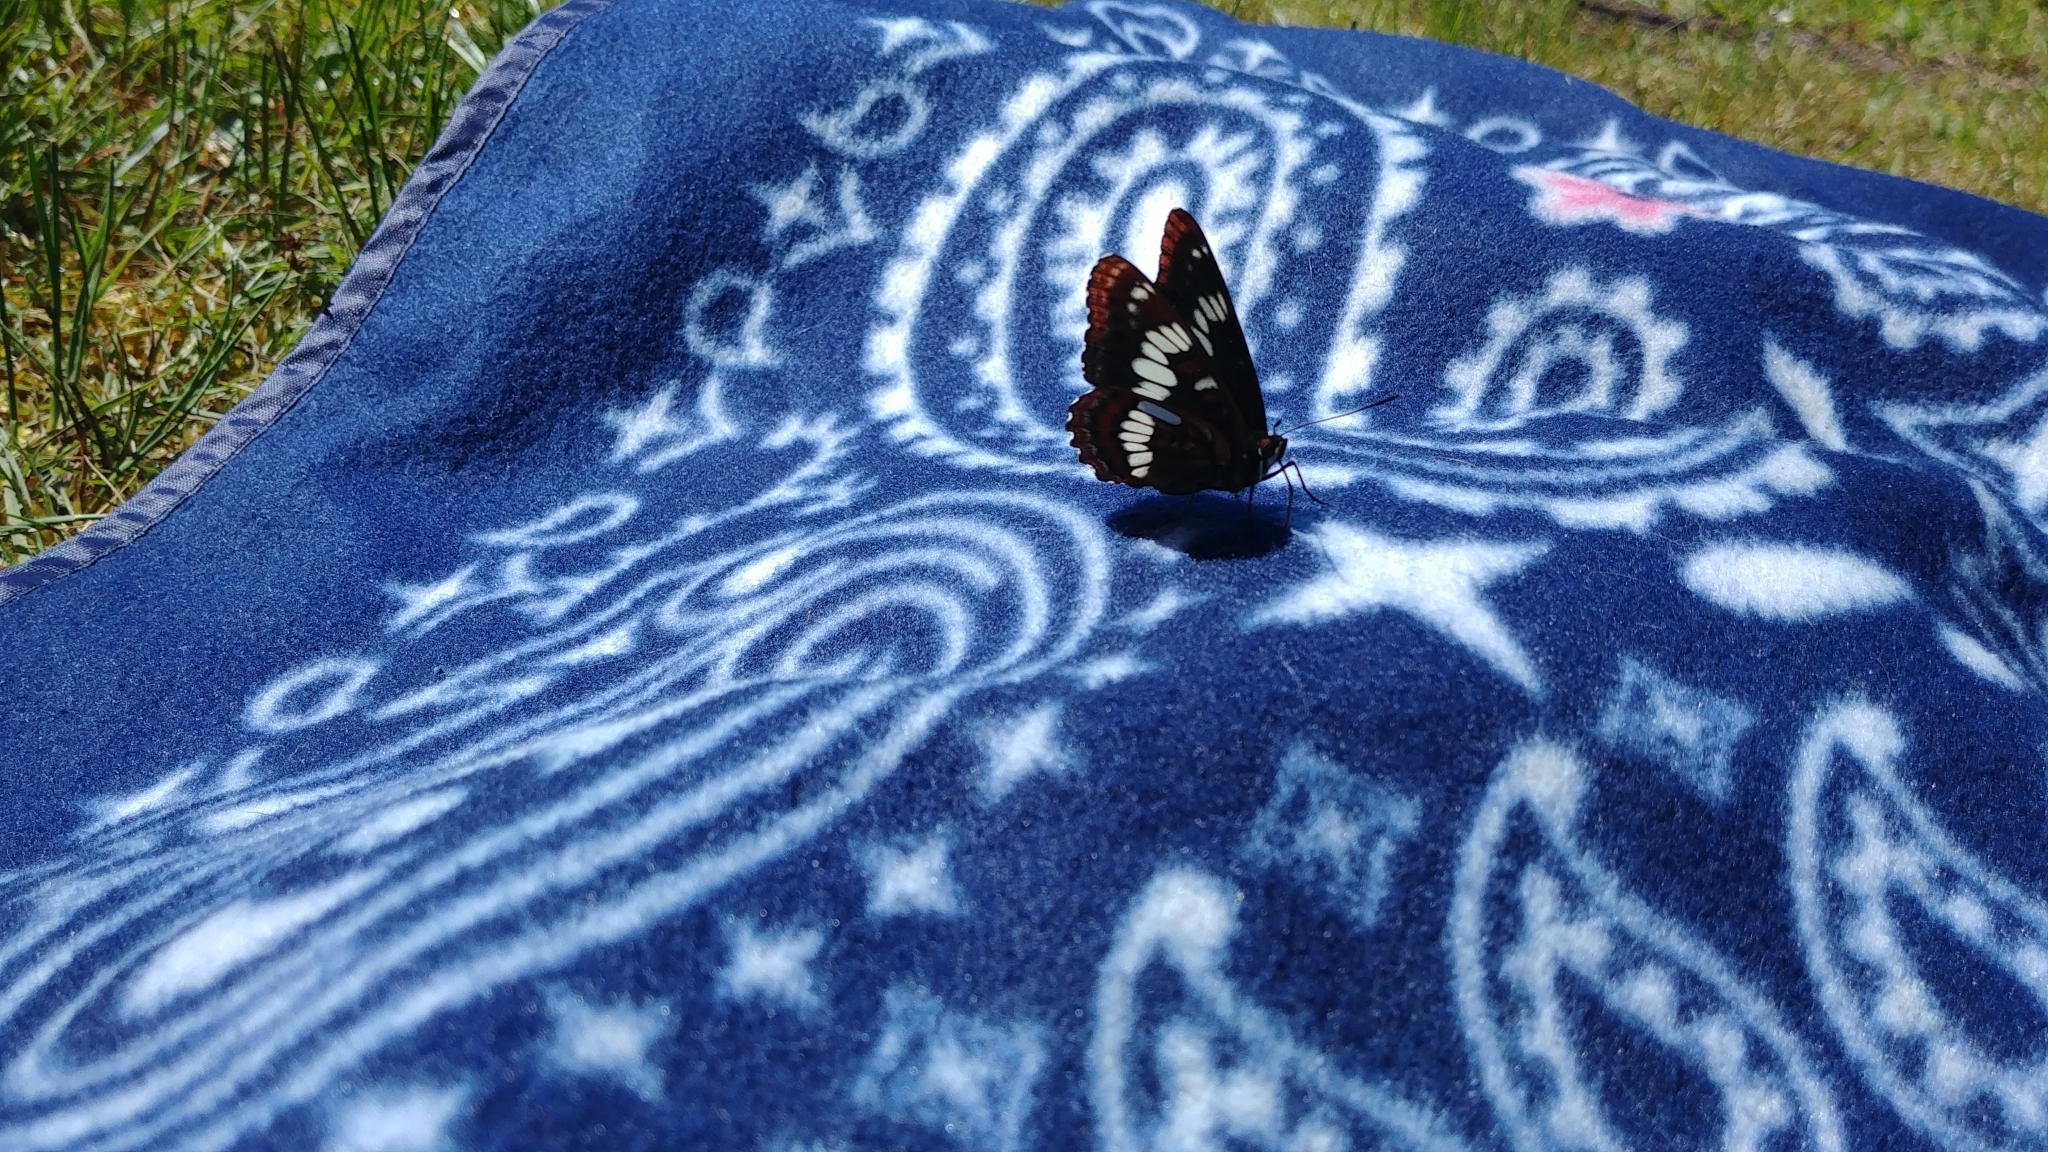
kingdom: Animalia
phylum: Arthropoda
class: Insecta
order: Lepidoptera
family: Nymphalidae
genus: Limenitis
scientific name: Limenitis lorquini
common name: Lorquin's admiral
